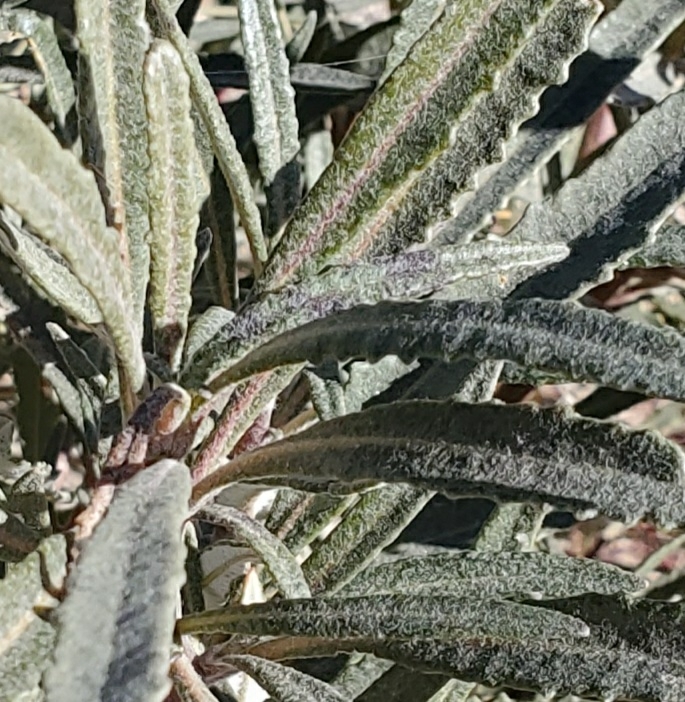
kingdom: Plantae
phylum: Tracheophyta
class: Magnoliopsida
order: Boraginales
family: Namaceae
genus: Eriodictyon
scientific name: Eriodictyon trichocalyx
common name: Hairy yerba-santa
